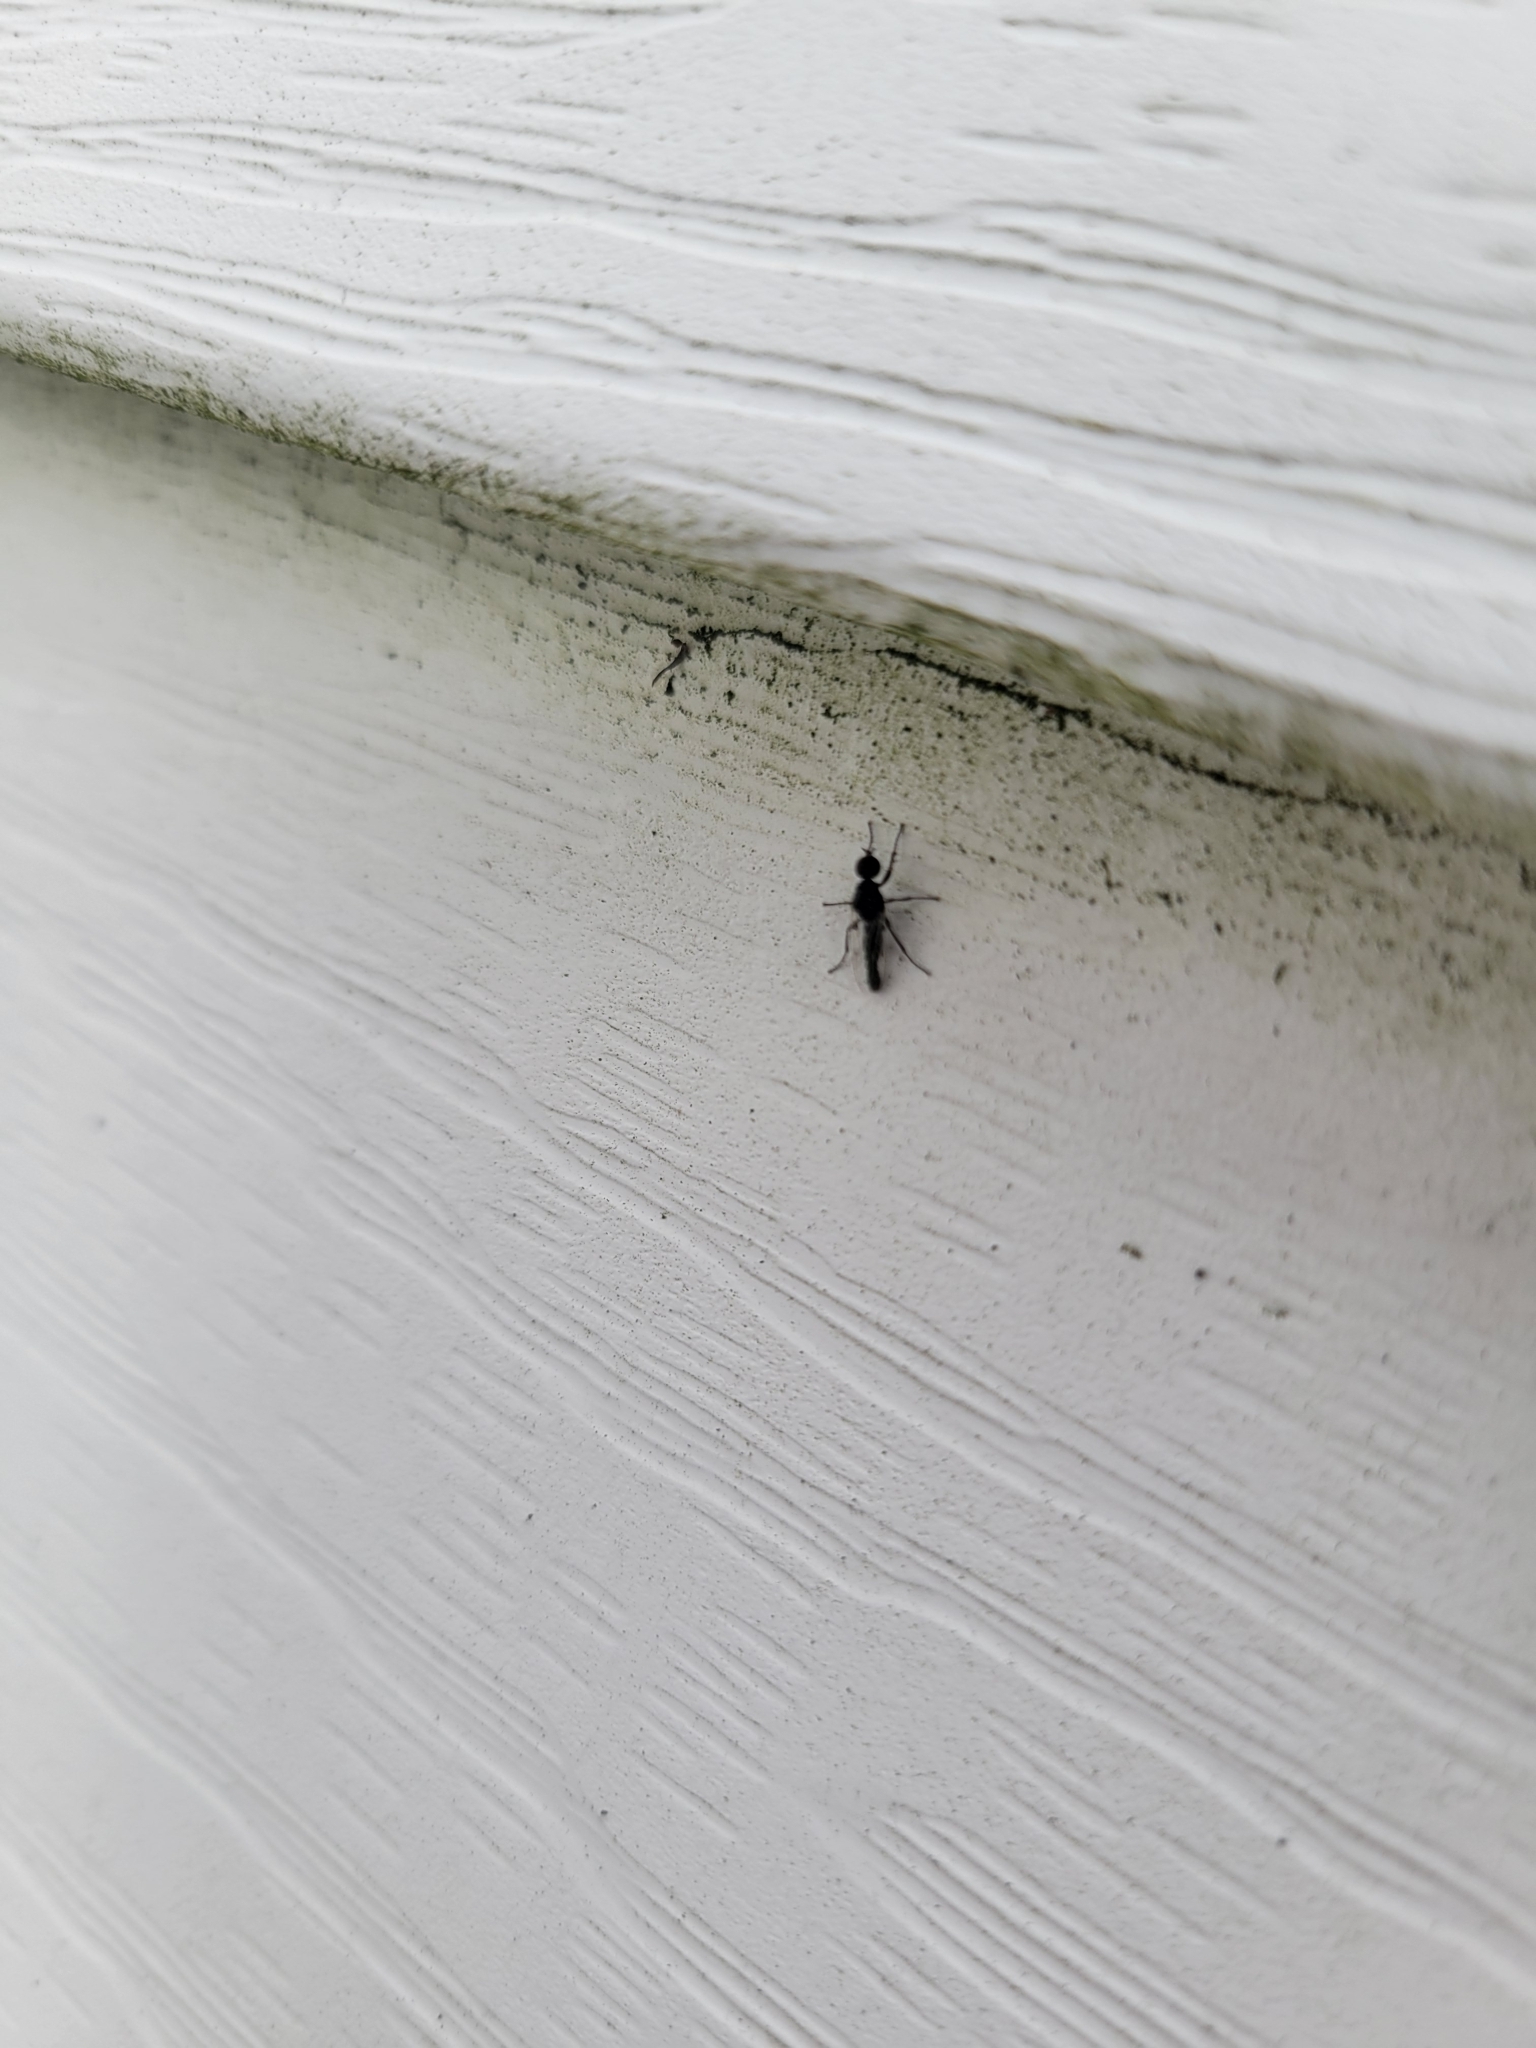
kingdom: Animalia
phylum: Arthropoda
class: Insecta
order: Diptera
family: Bibionidae
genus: Dilophus
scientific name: Dilophus
